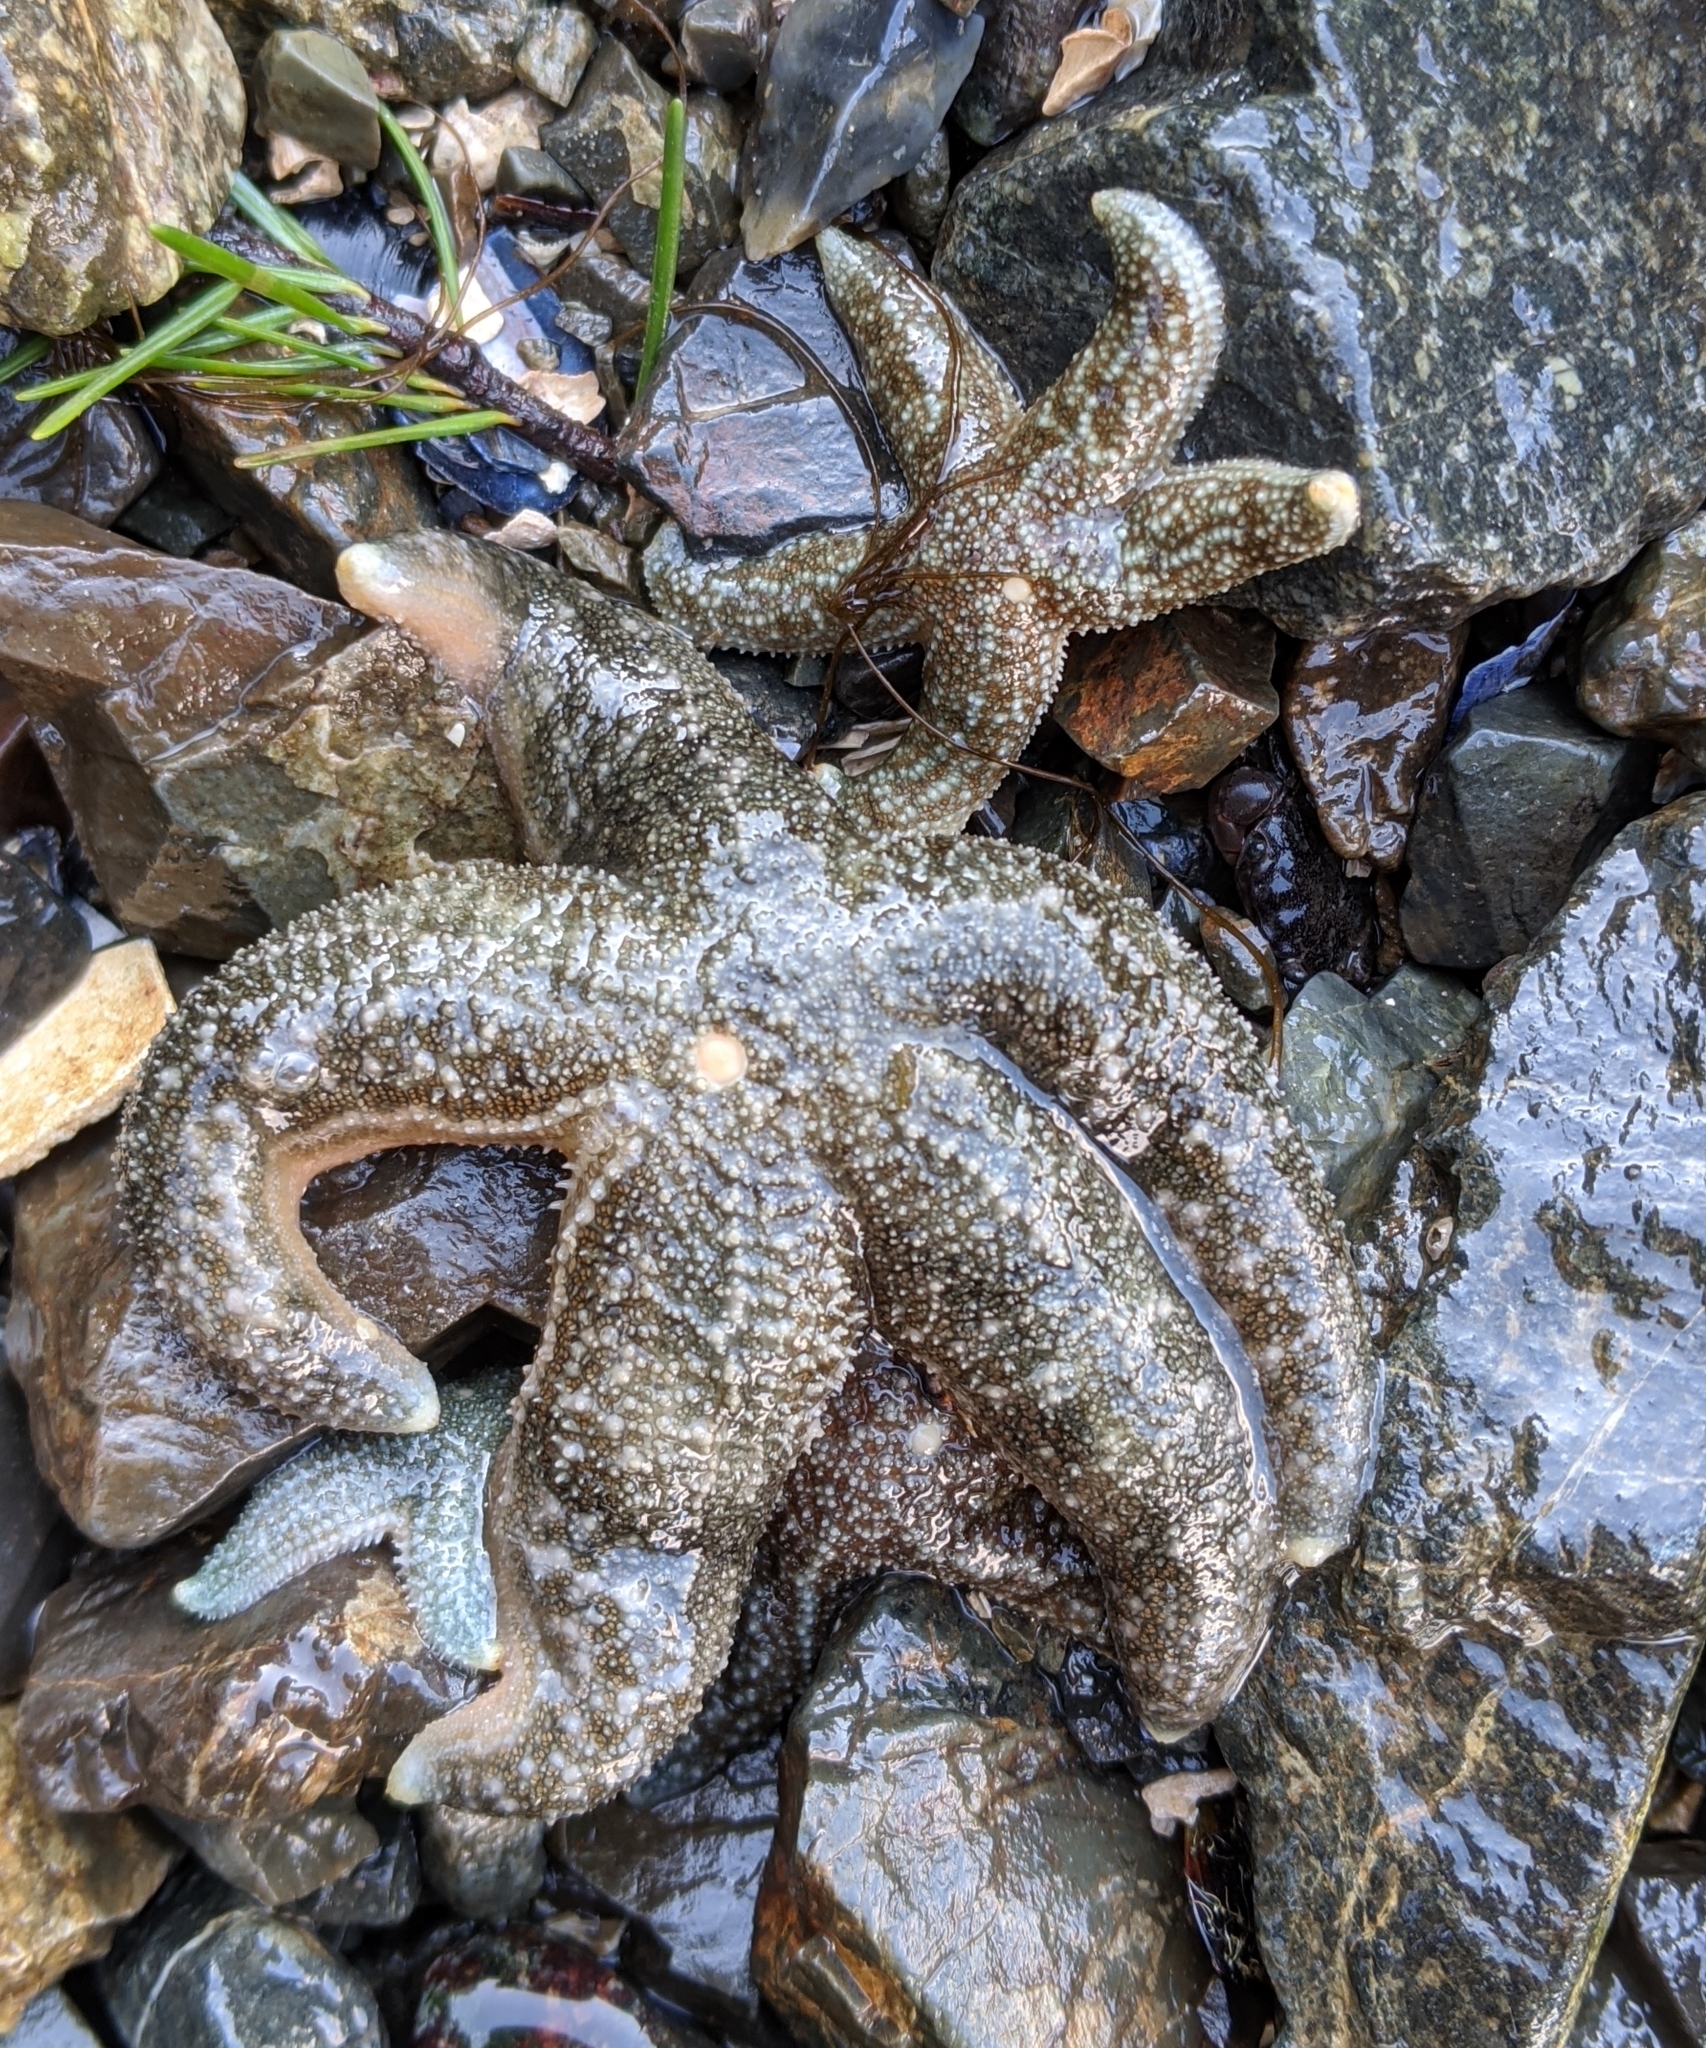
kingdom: Animalia
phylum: Echinodermata
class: Asteroidea
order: Forcipulatida
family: Asteriidae
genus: Evasterias
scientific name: Evasterias troschelii
